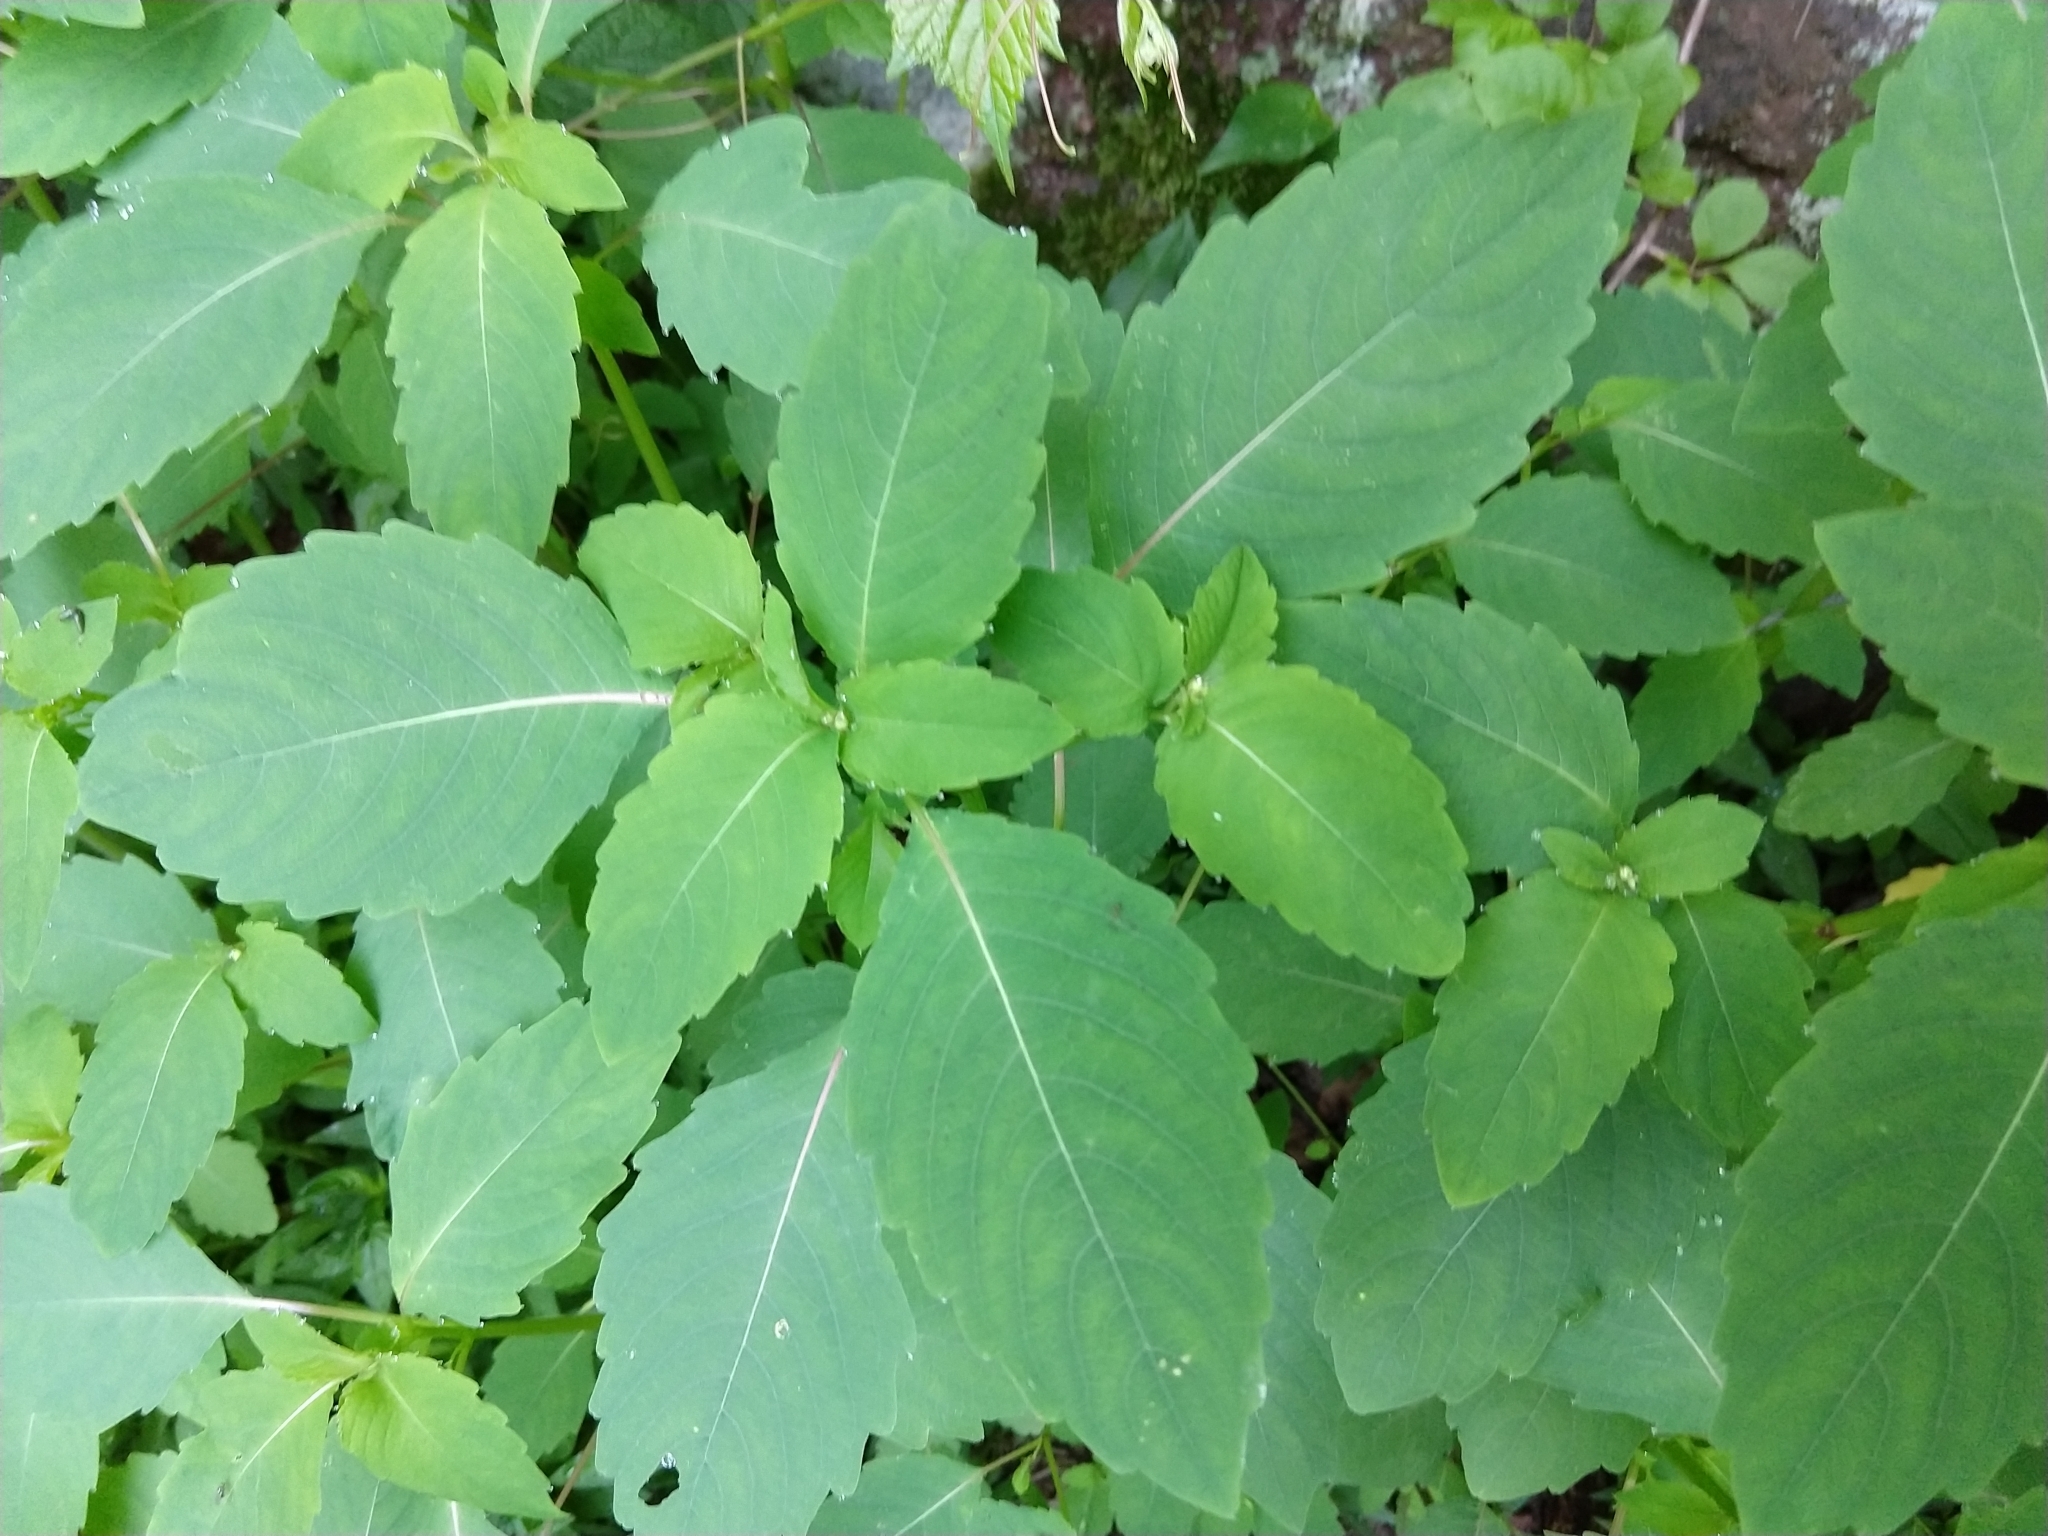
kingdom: Plantae
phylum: Tracheophyta
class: Magnoliopsida
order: Ericales
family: Balsaminaceae
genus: Impatiens
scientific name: Impatiens capensis
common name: Orange balsam
